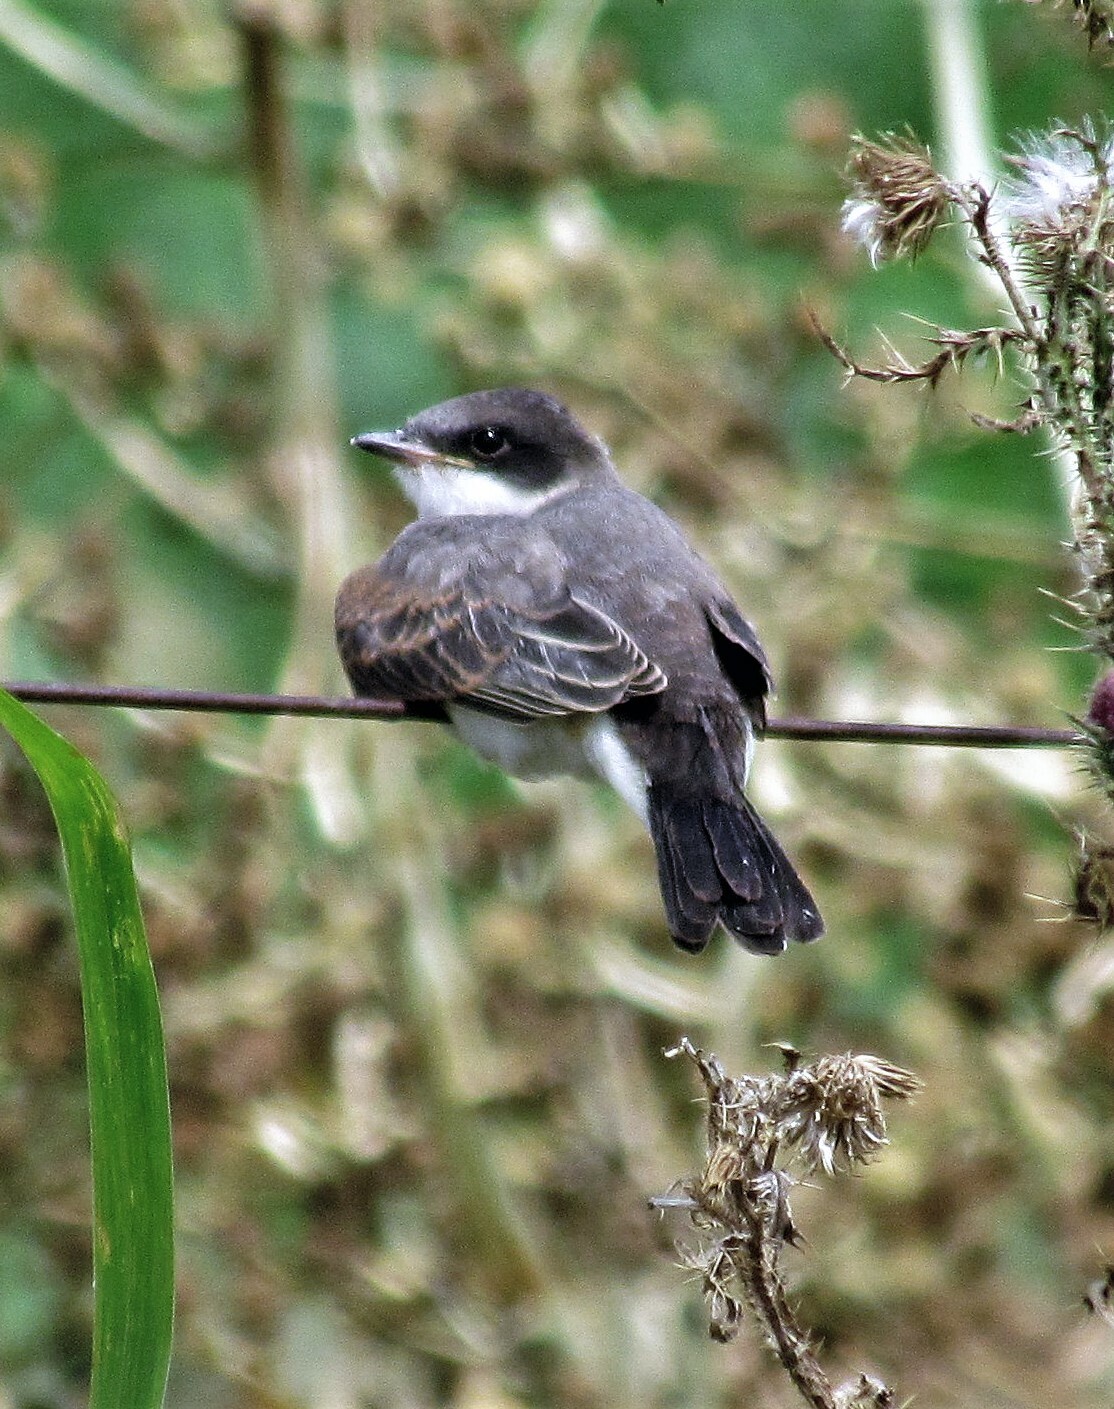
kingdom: Animalia
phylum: Chordata
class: Aves
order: Passeriformes
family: Tyrannidae
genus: Tyrannus
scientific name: Tyrannus savana
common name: Fork-tailed flycatcher
